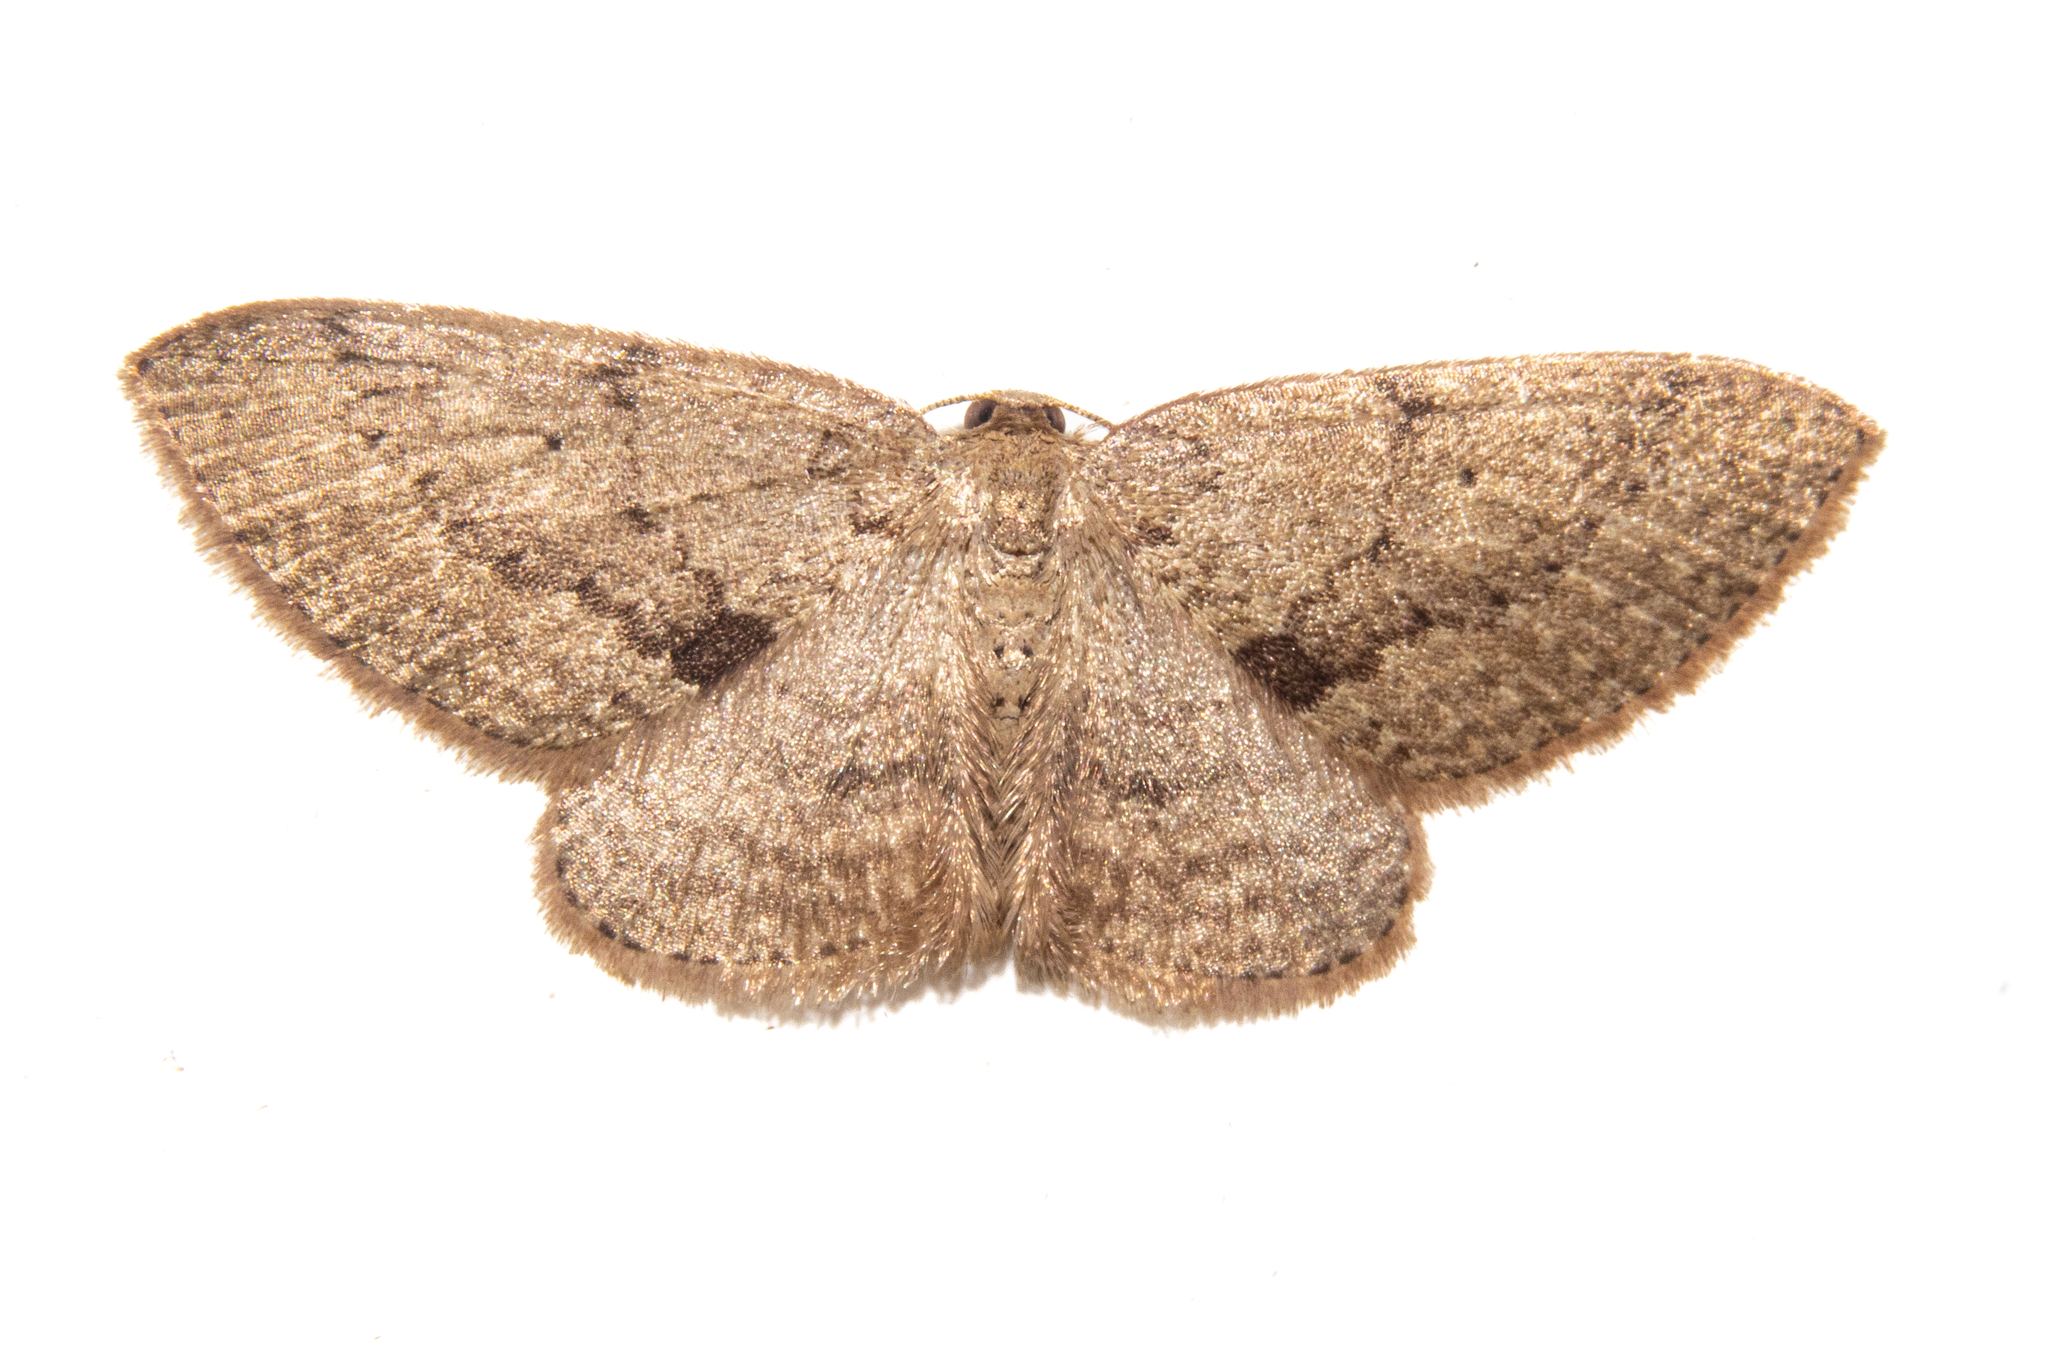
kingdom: Animalia
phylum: Arthropoda
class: Insecta
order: Lepidoptera
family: Geometridae
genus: Poecilasthena
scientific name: Poecilasthena schistaria
